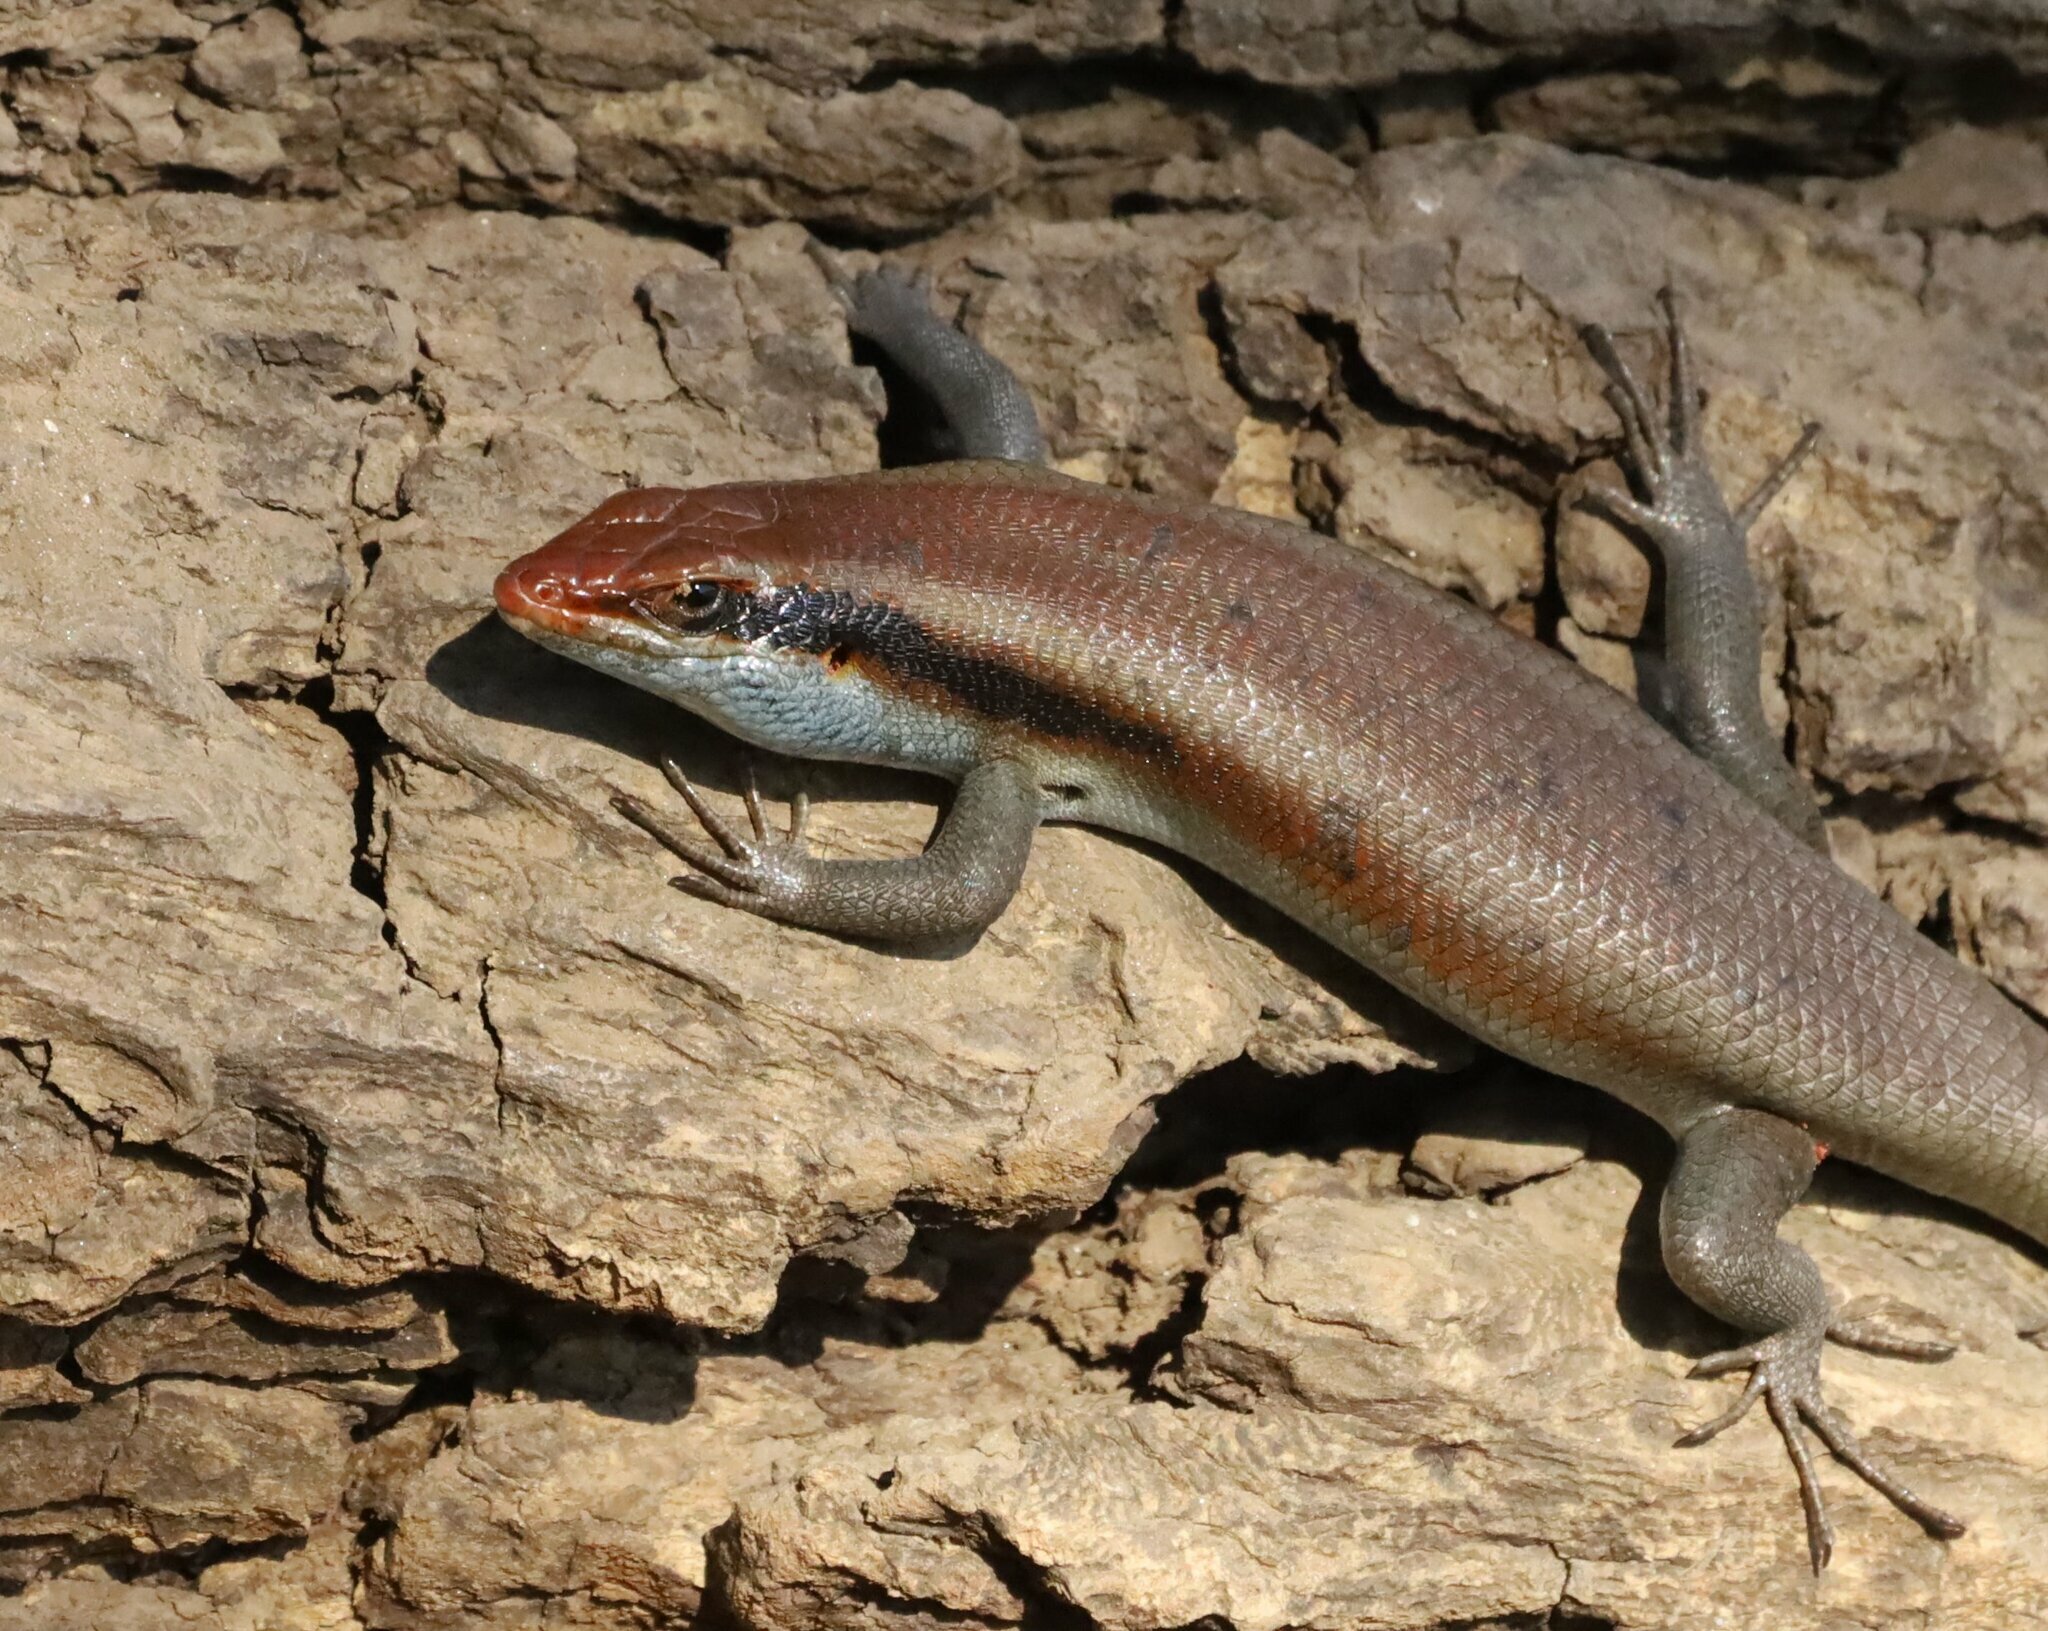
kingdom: Animalia
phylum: Chordata
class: Squamata
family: Scincidae
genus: Trachylepis
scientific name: Trachylepis wahlbergii
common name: Wahlberg’s striped skink
